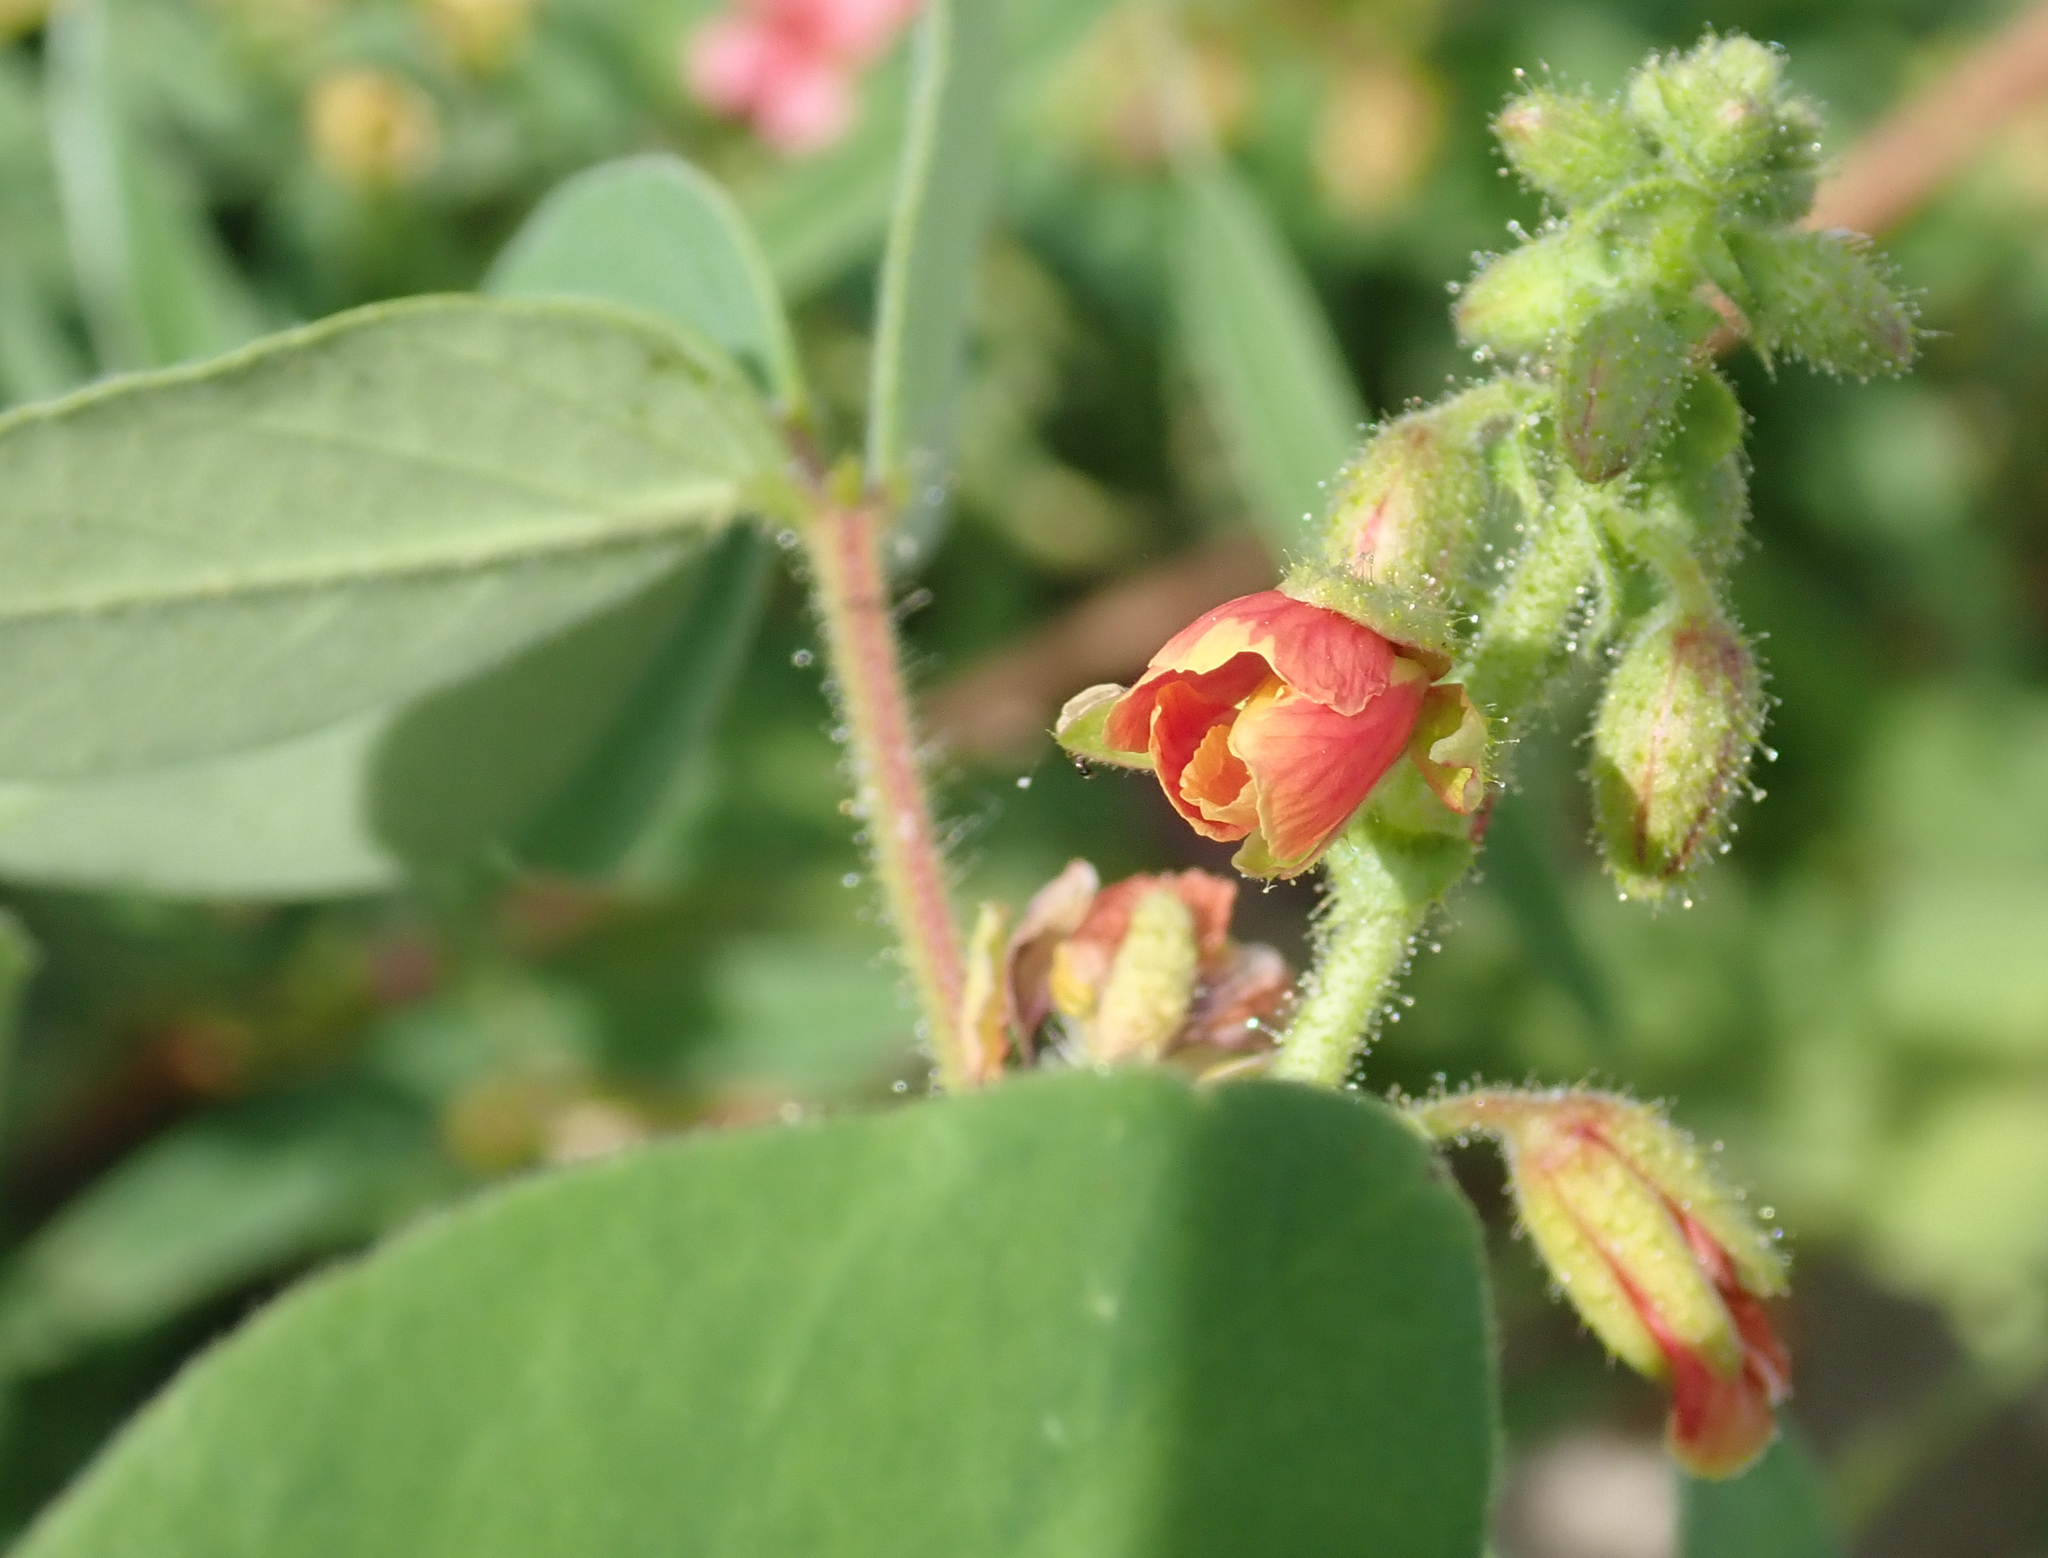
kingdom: Plantae
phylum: Tracheophyta
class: Magnoliopsida
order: Fabales
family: Fabaceae
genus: Chamaecrista
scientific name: Chamaecrista absus
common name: Tropical sensitive pea
